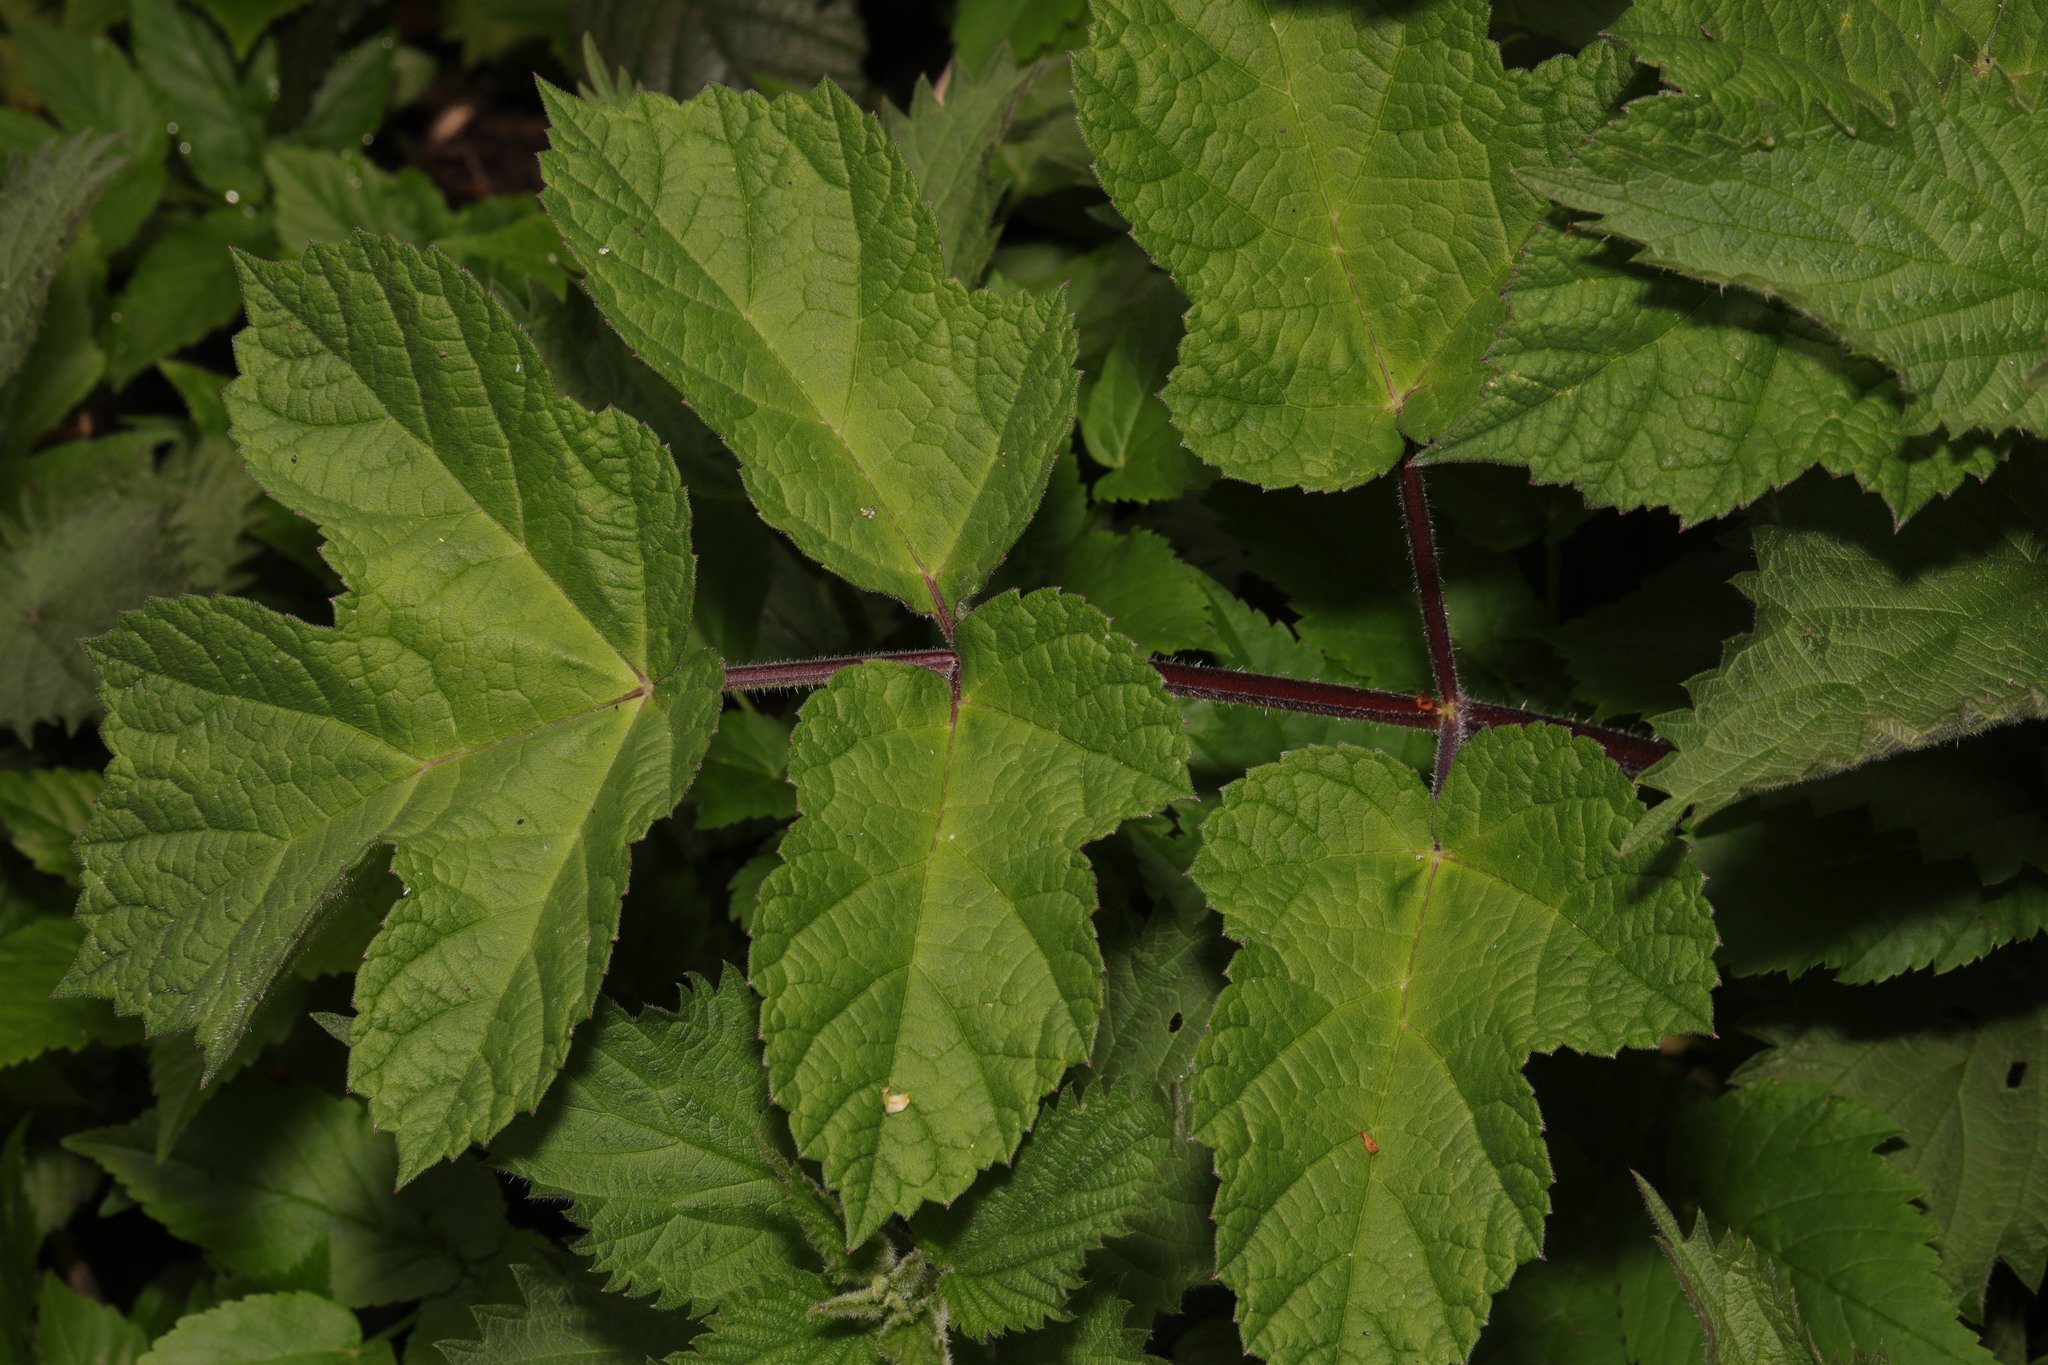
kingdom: Plantae
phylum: Tracheophyta
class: Magnoliopsida
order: Apiales
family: Apiaceae
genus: Heracleum
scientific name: Heracleum sphondylium
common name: Hogweed
